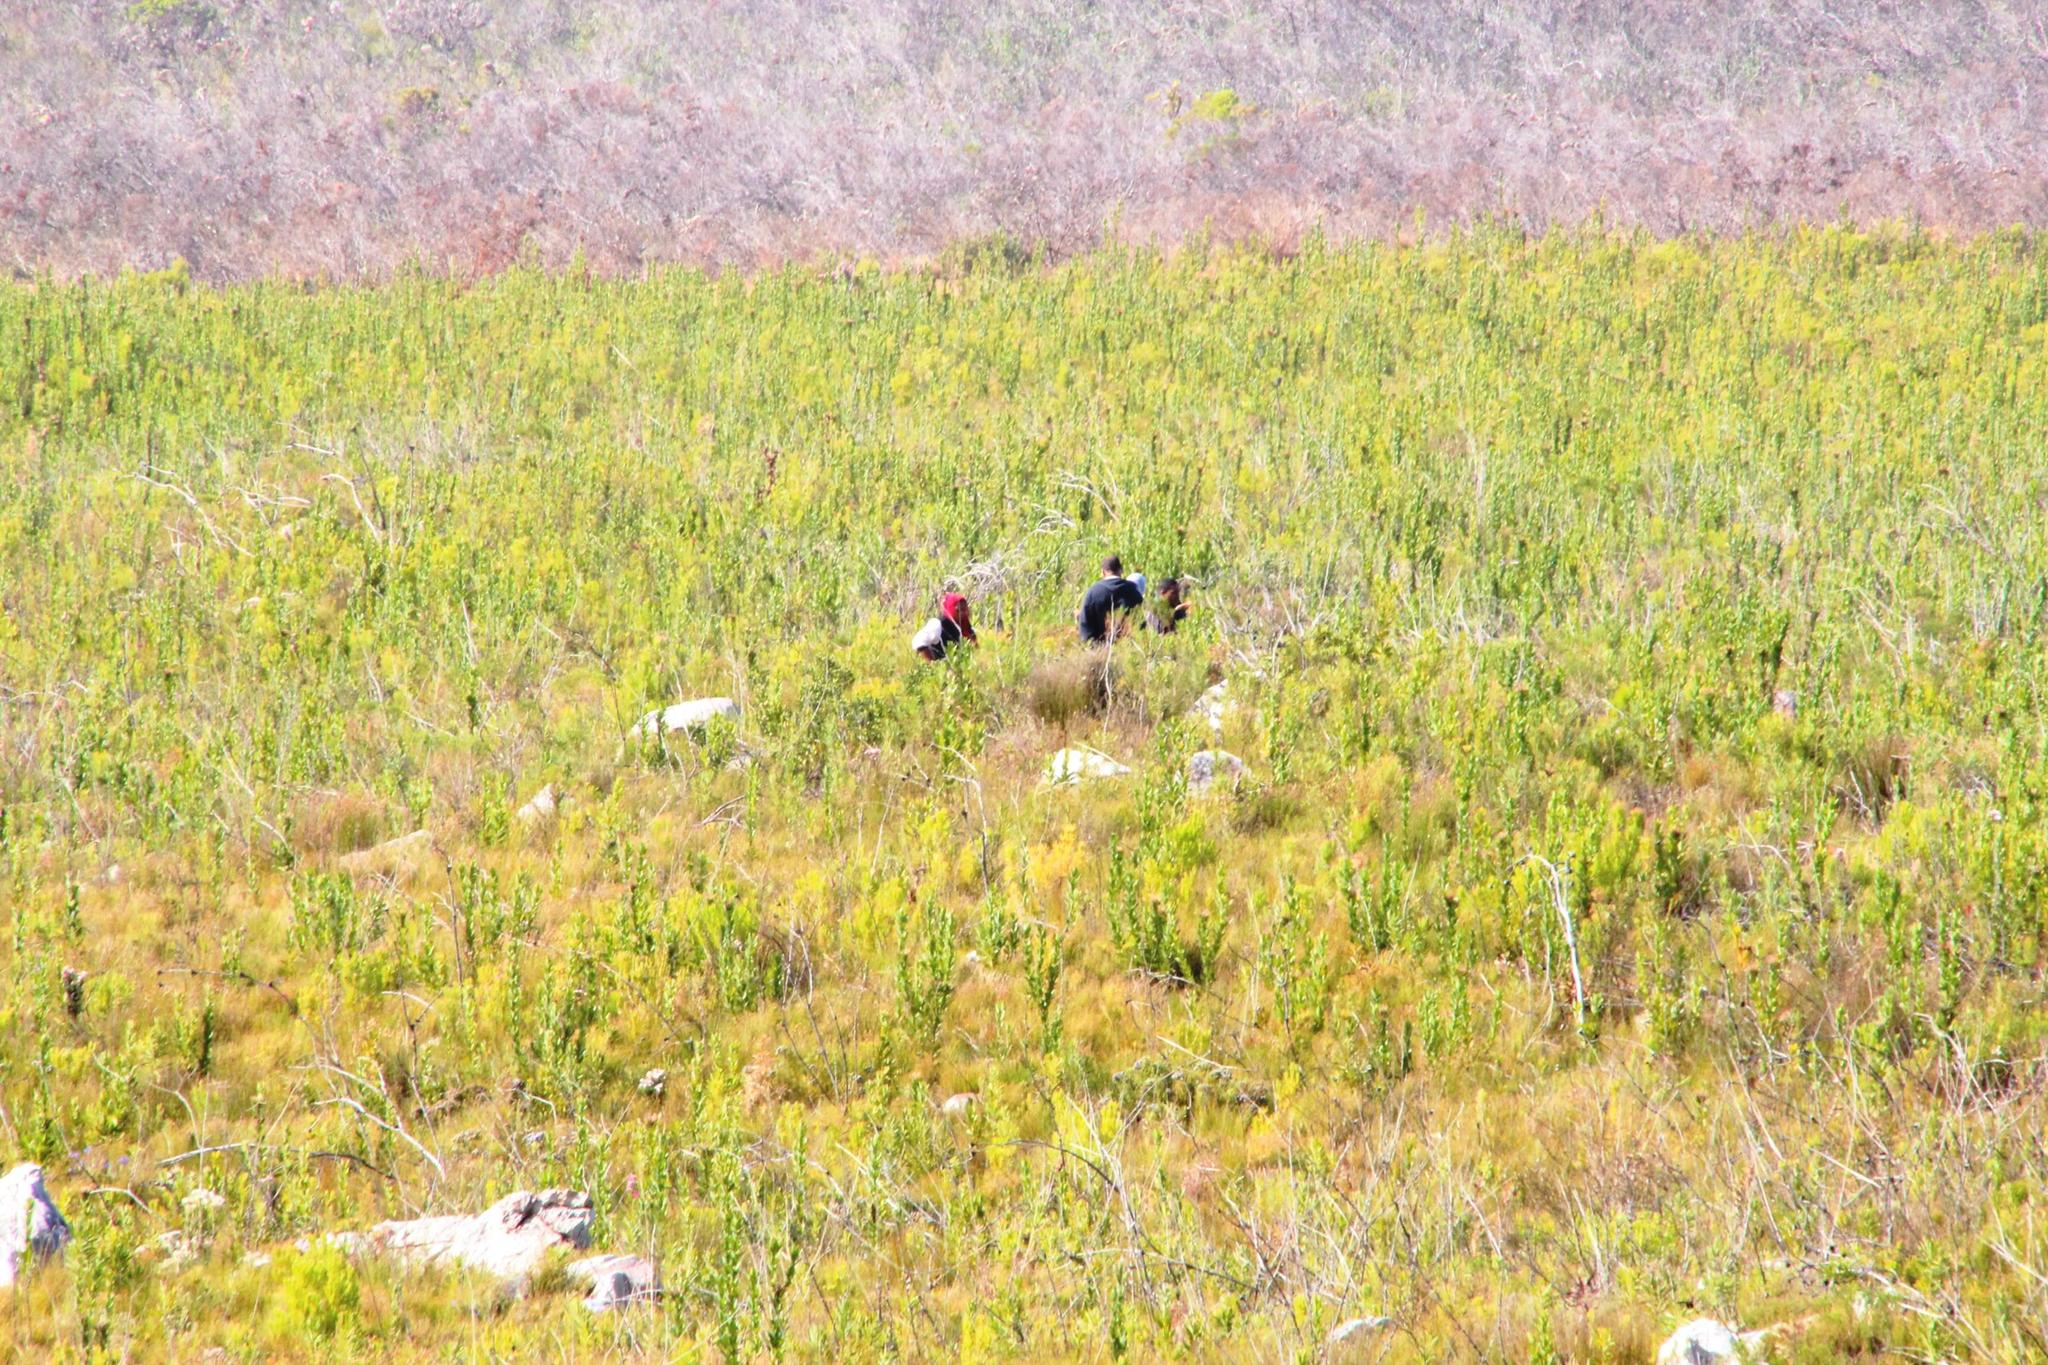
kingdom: Plantae
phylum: Tracheophyta
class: Magnoliopsida
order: Proteales
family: Proteaceae
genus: Protea
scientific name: Protea compacta
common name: Bot river protea
